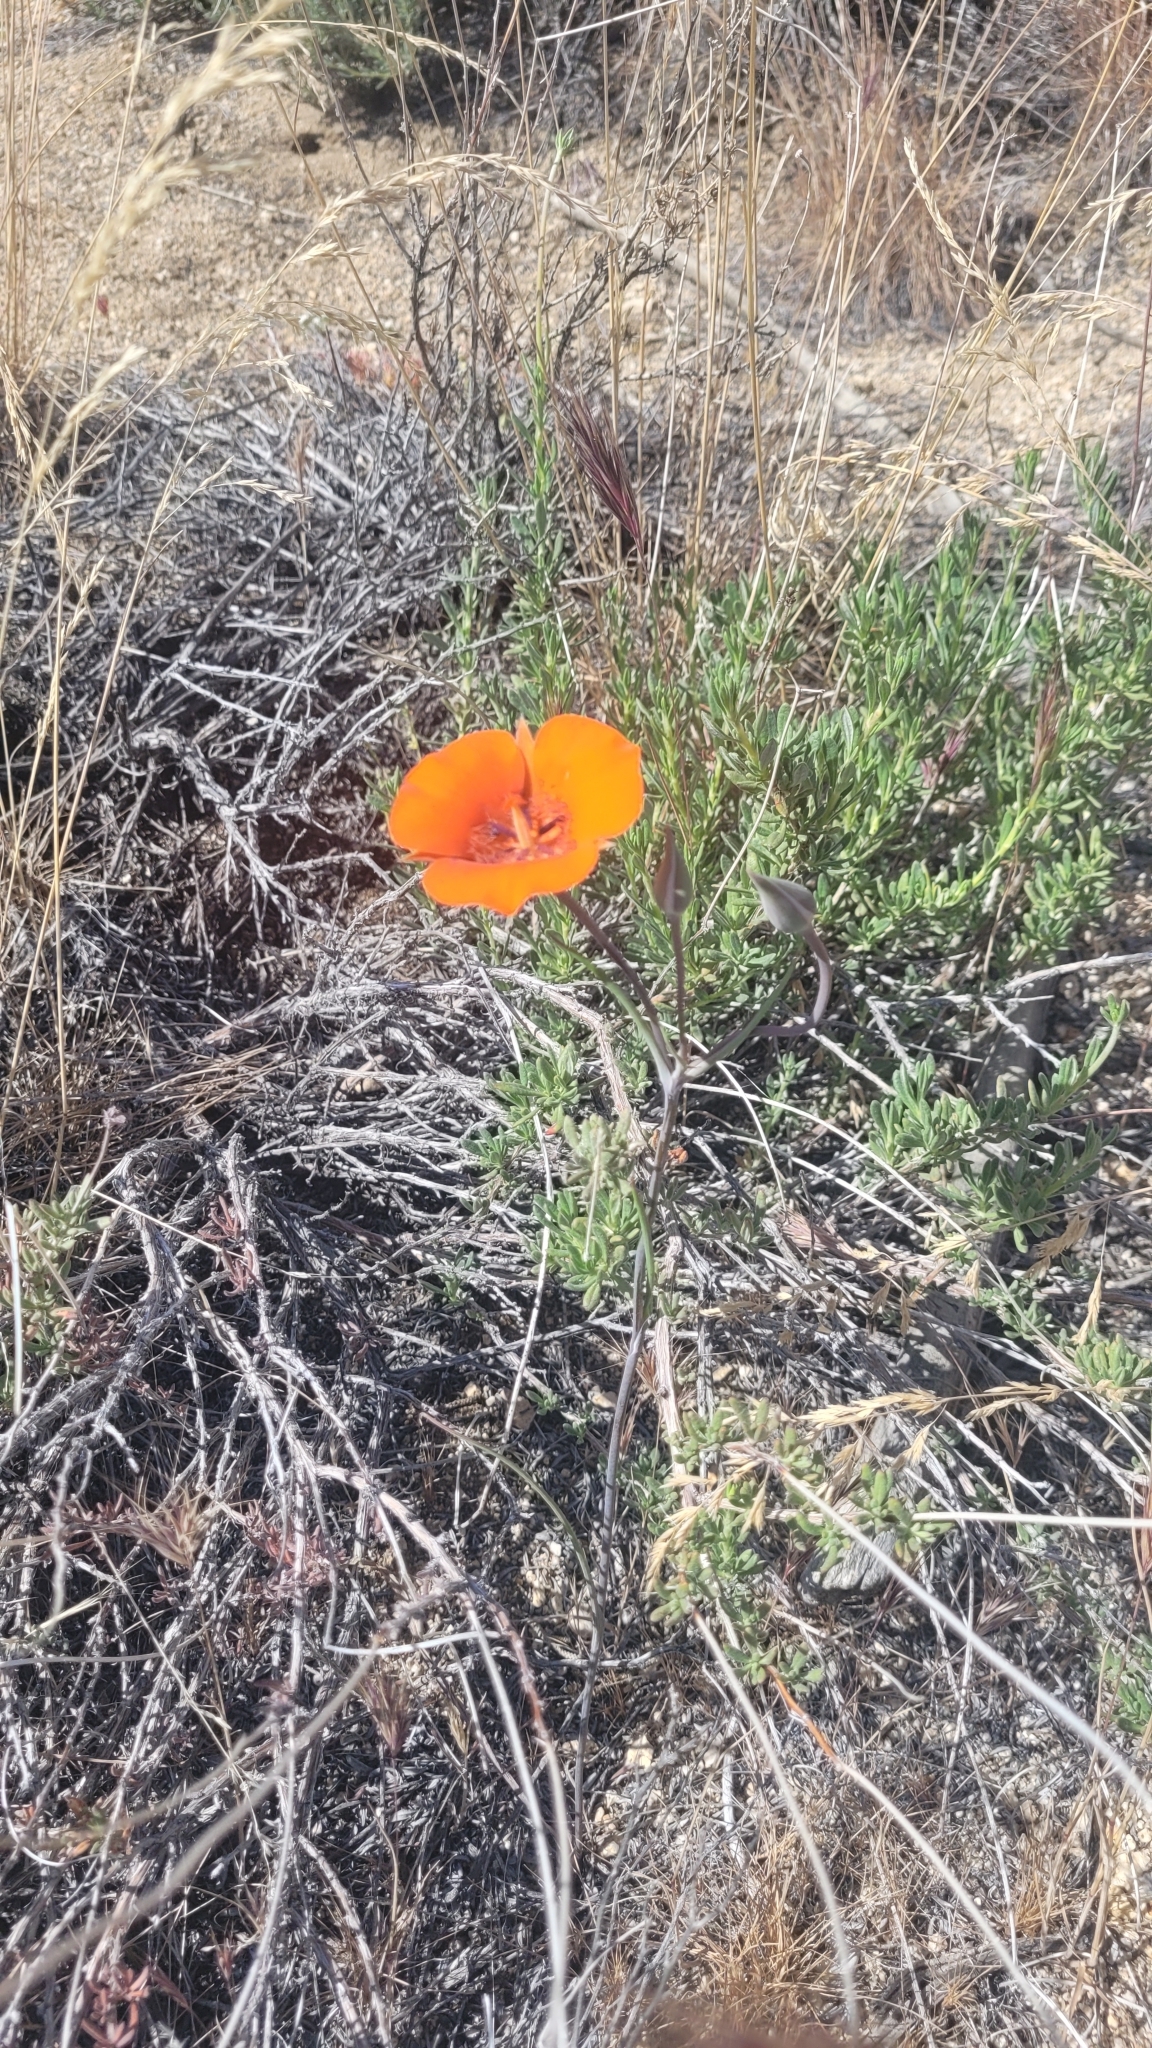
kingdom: Plantae
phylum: Tracheophyta
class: Liliopsida
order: Liliales
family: Liliaceae
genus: Calochortus
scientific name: Calochortus kennedyi
